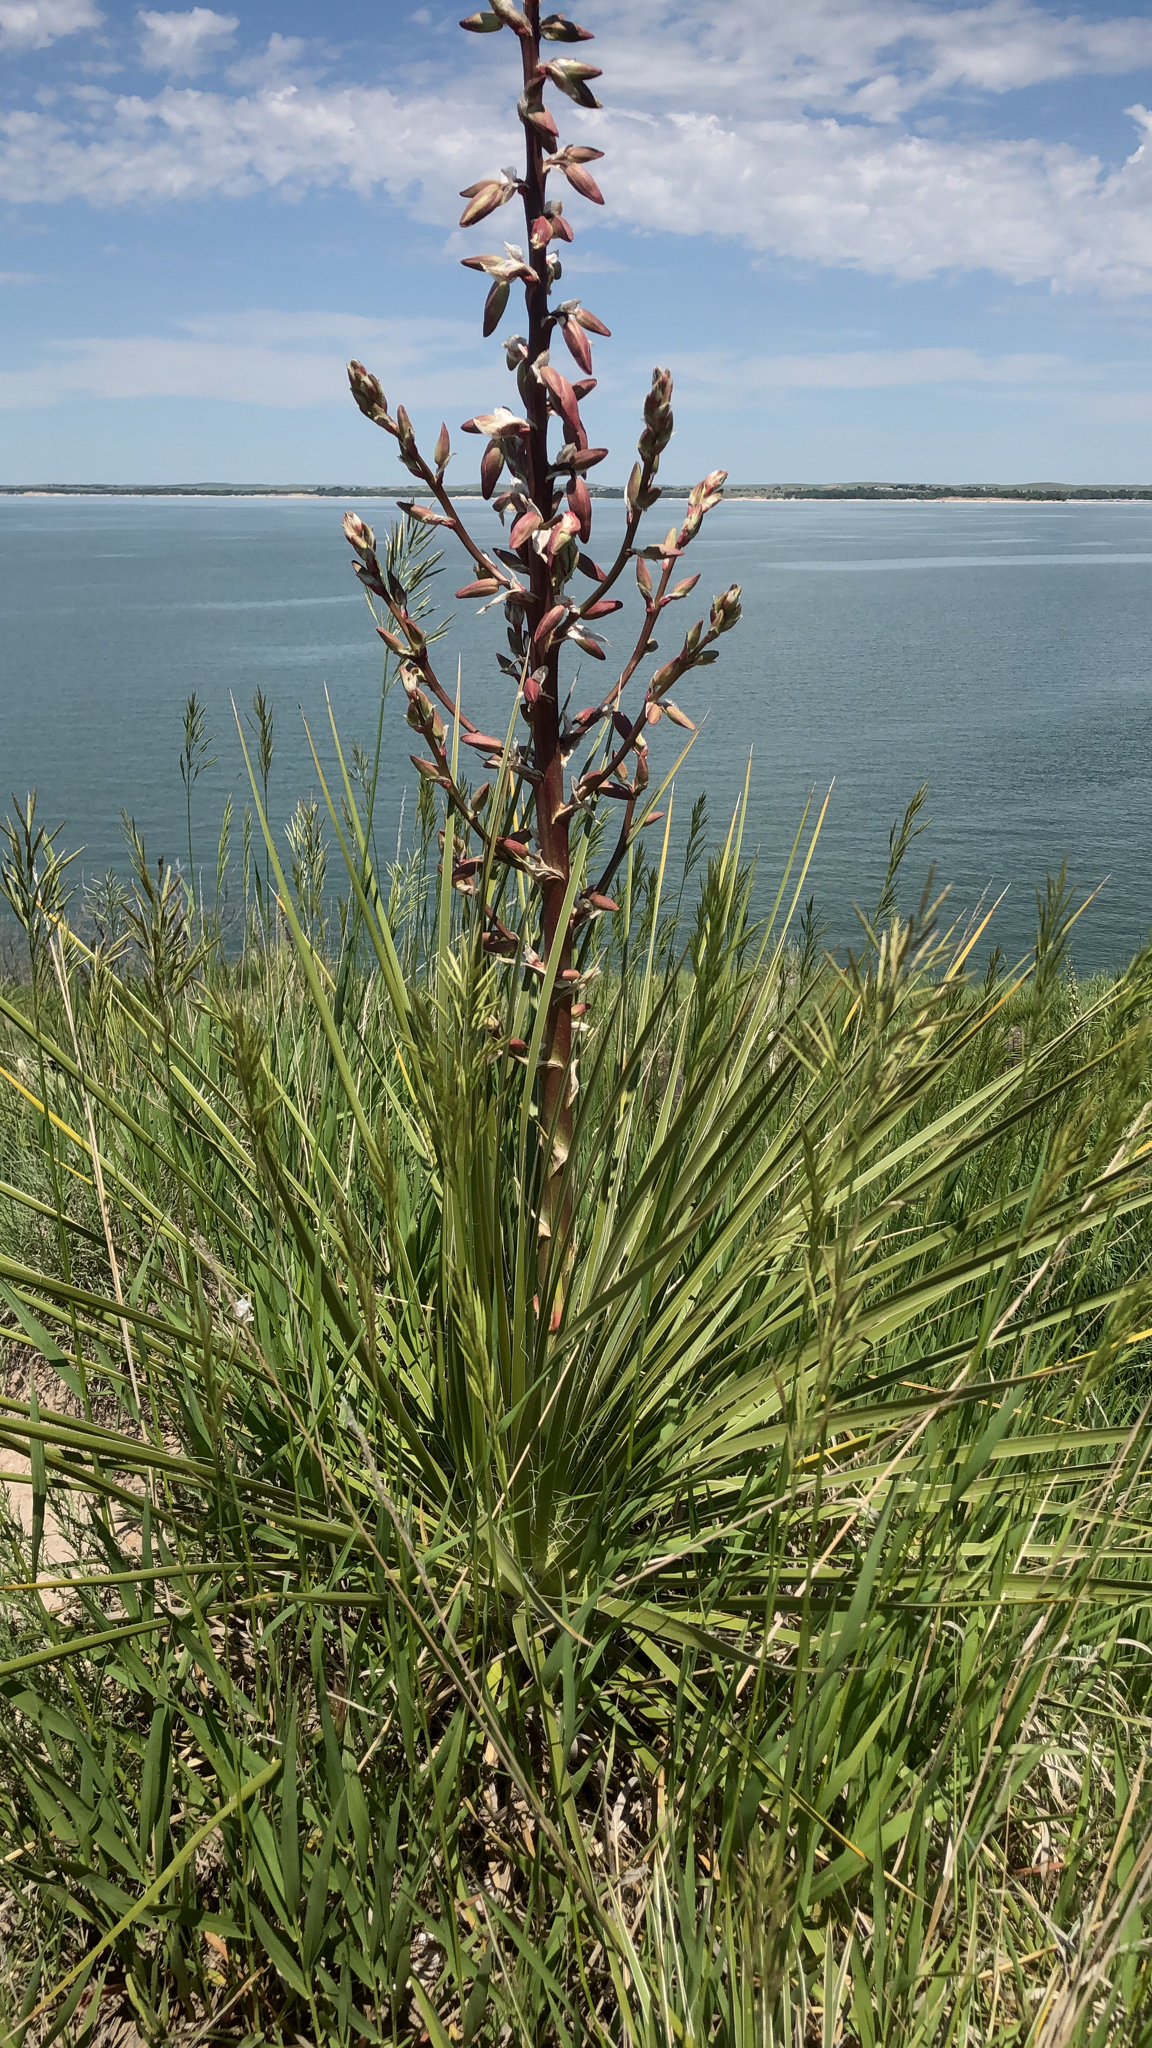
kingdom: Plantae
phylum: Tracheophyta
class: Liliopsida
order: Asparagales
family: Asparagaceae
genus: Yucca
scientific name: Yucca glauca
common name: Great plains yucca
